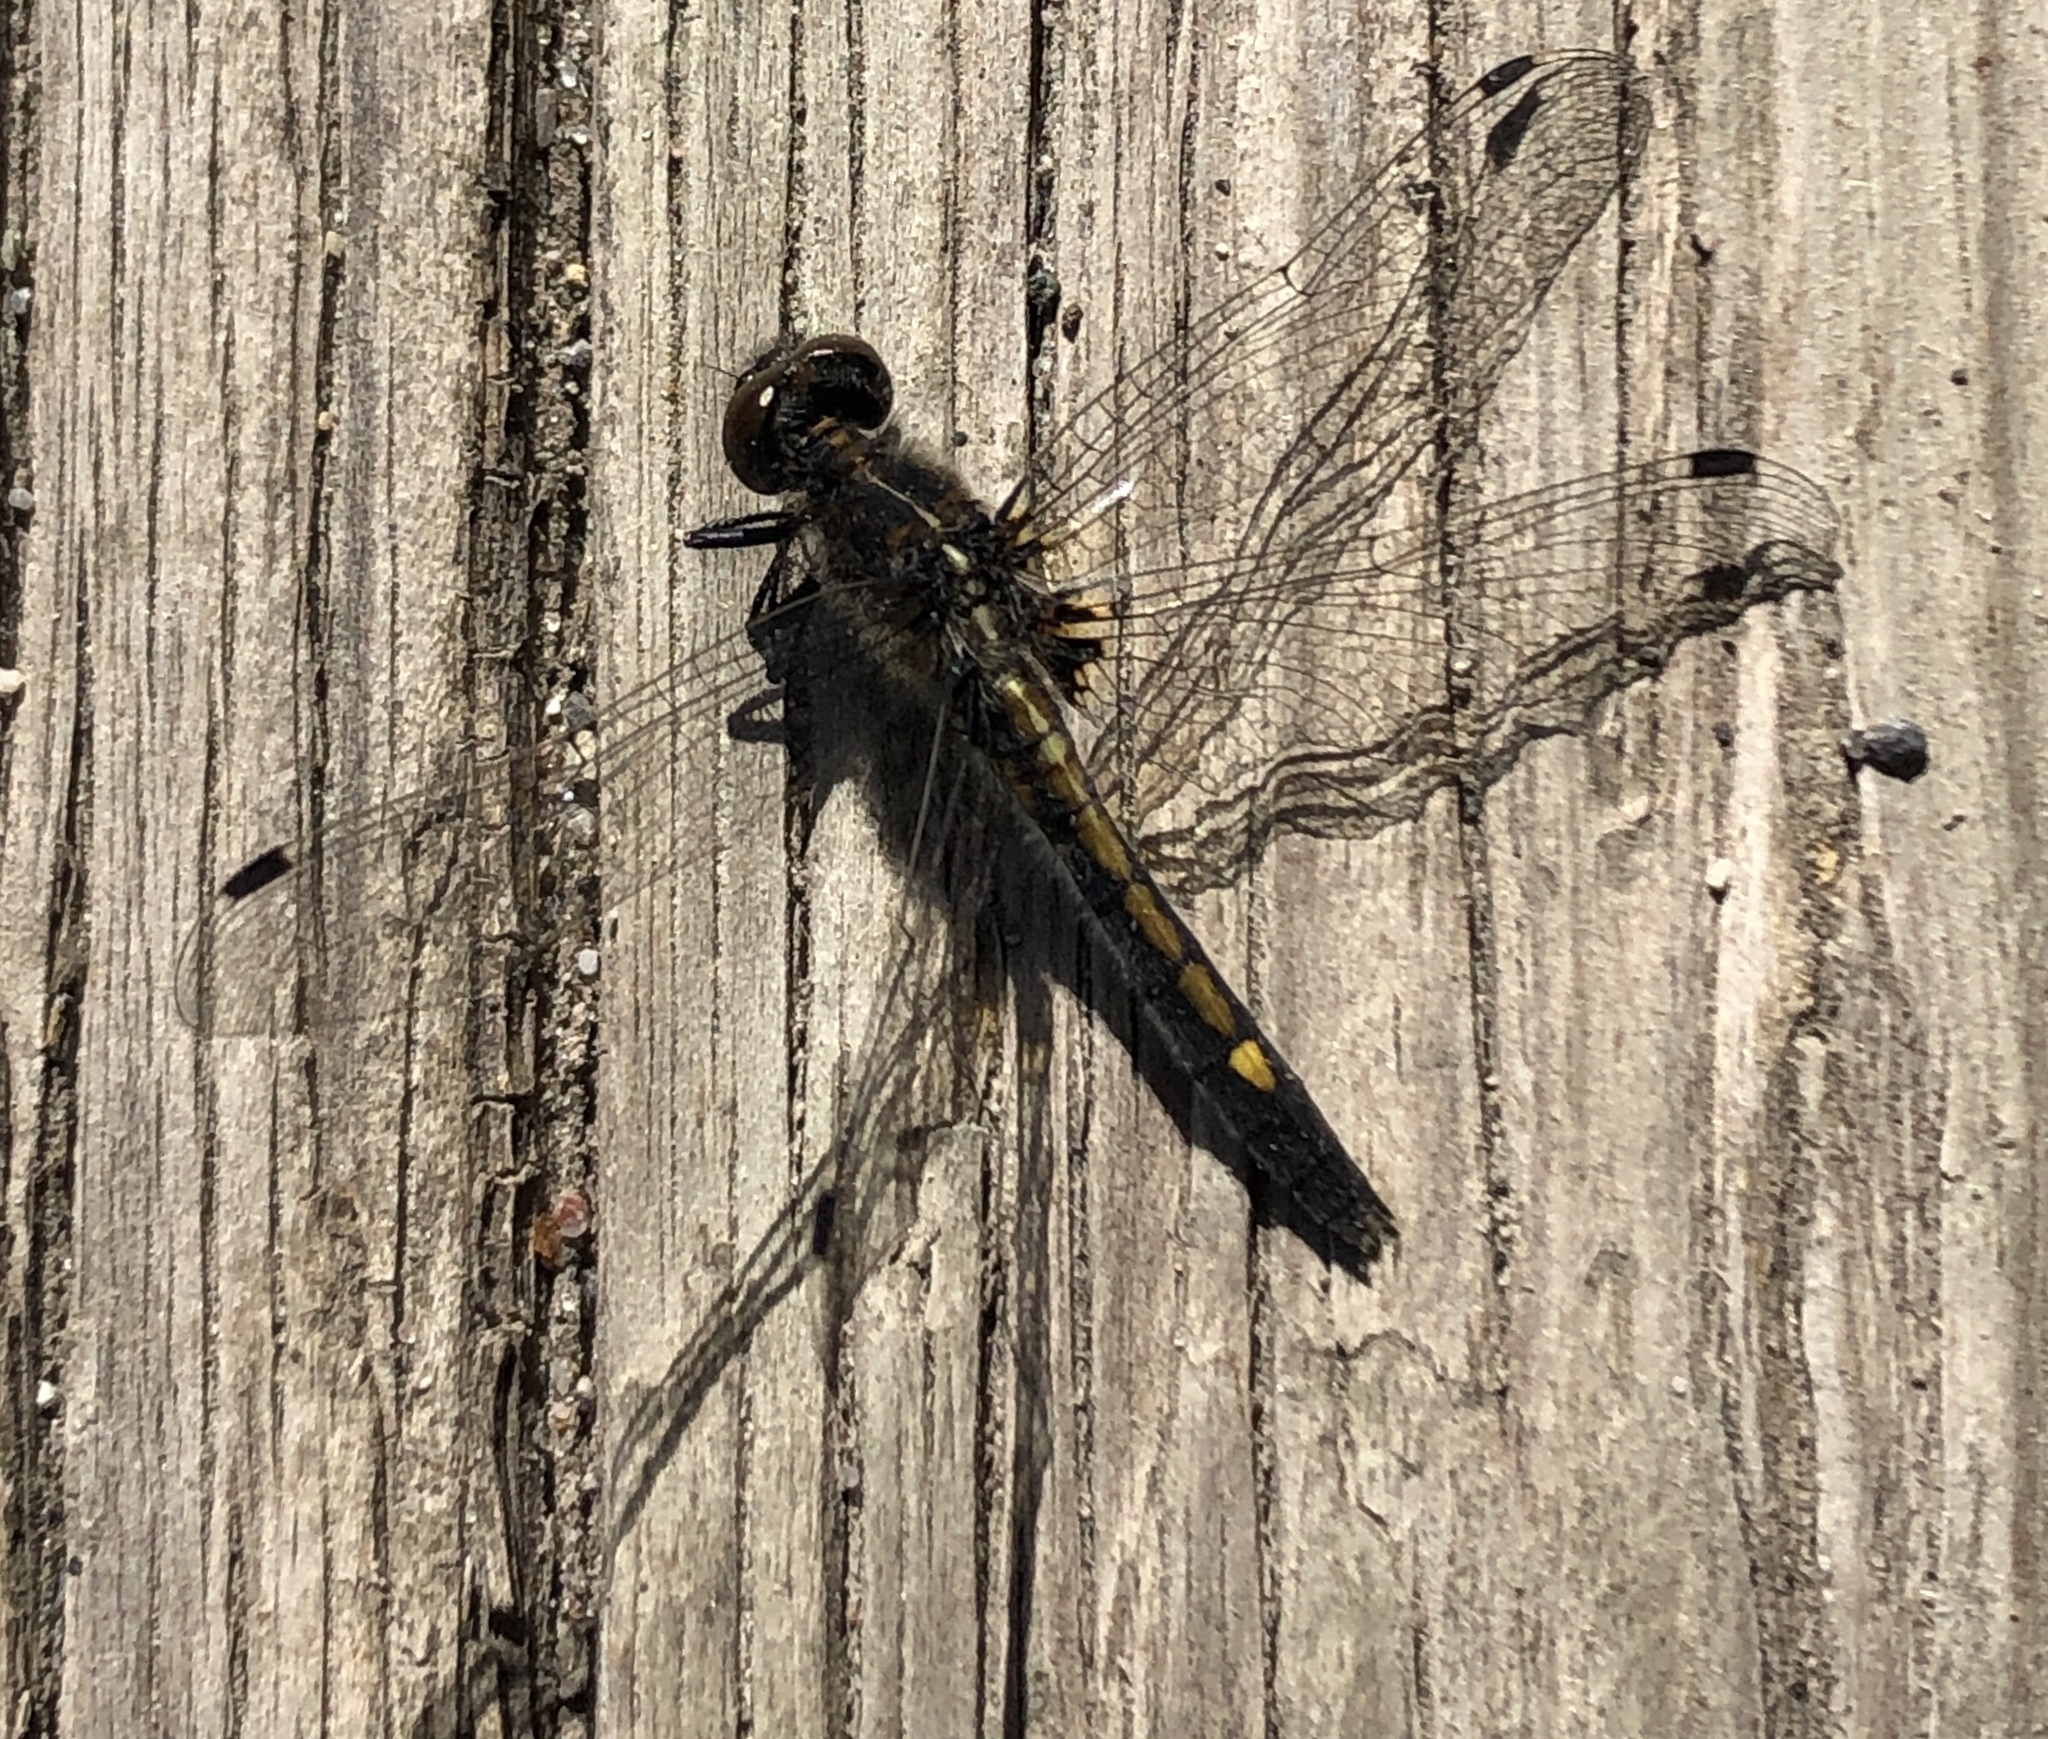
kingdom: Animalia
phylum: Arthropoda
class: Insecta
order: Odonata
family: Libellulidae
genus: Leucorrhinia
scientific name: Leucorrhinia intacta
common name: Dot-tailed whiteface
